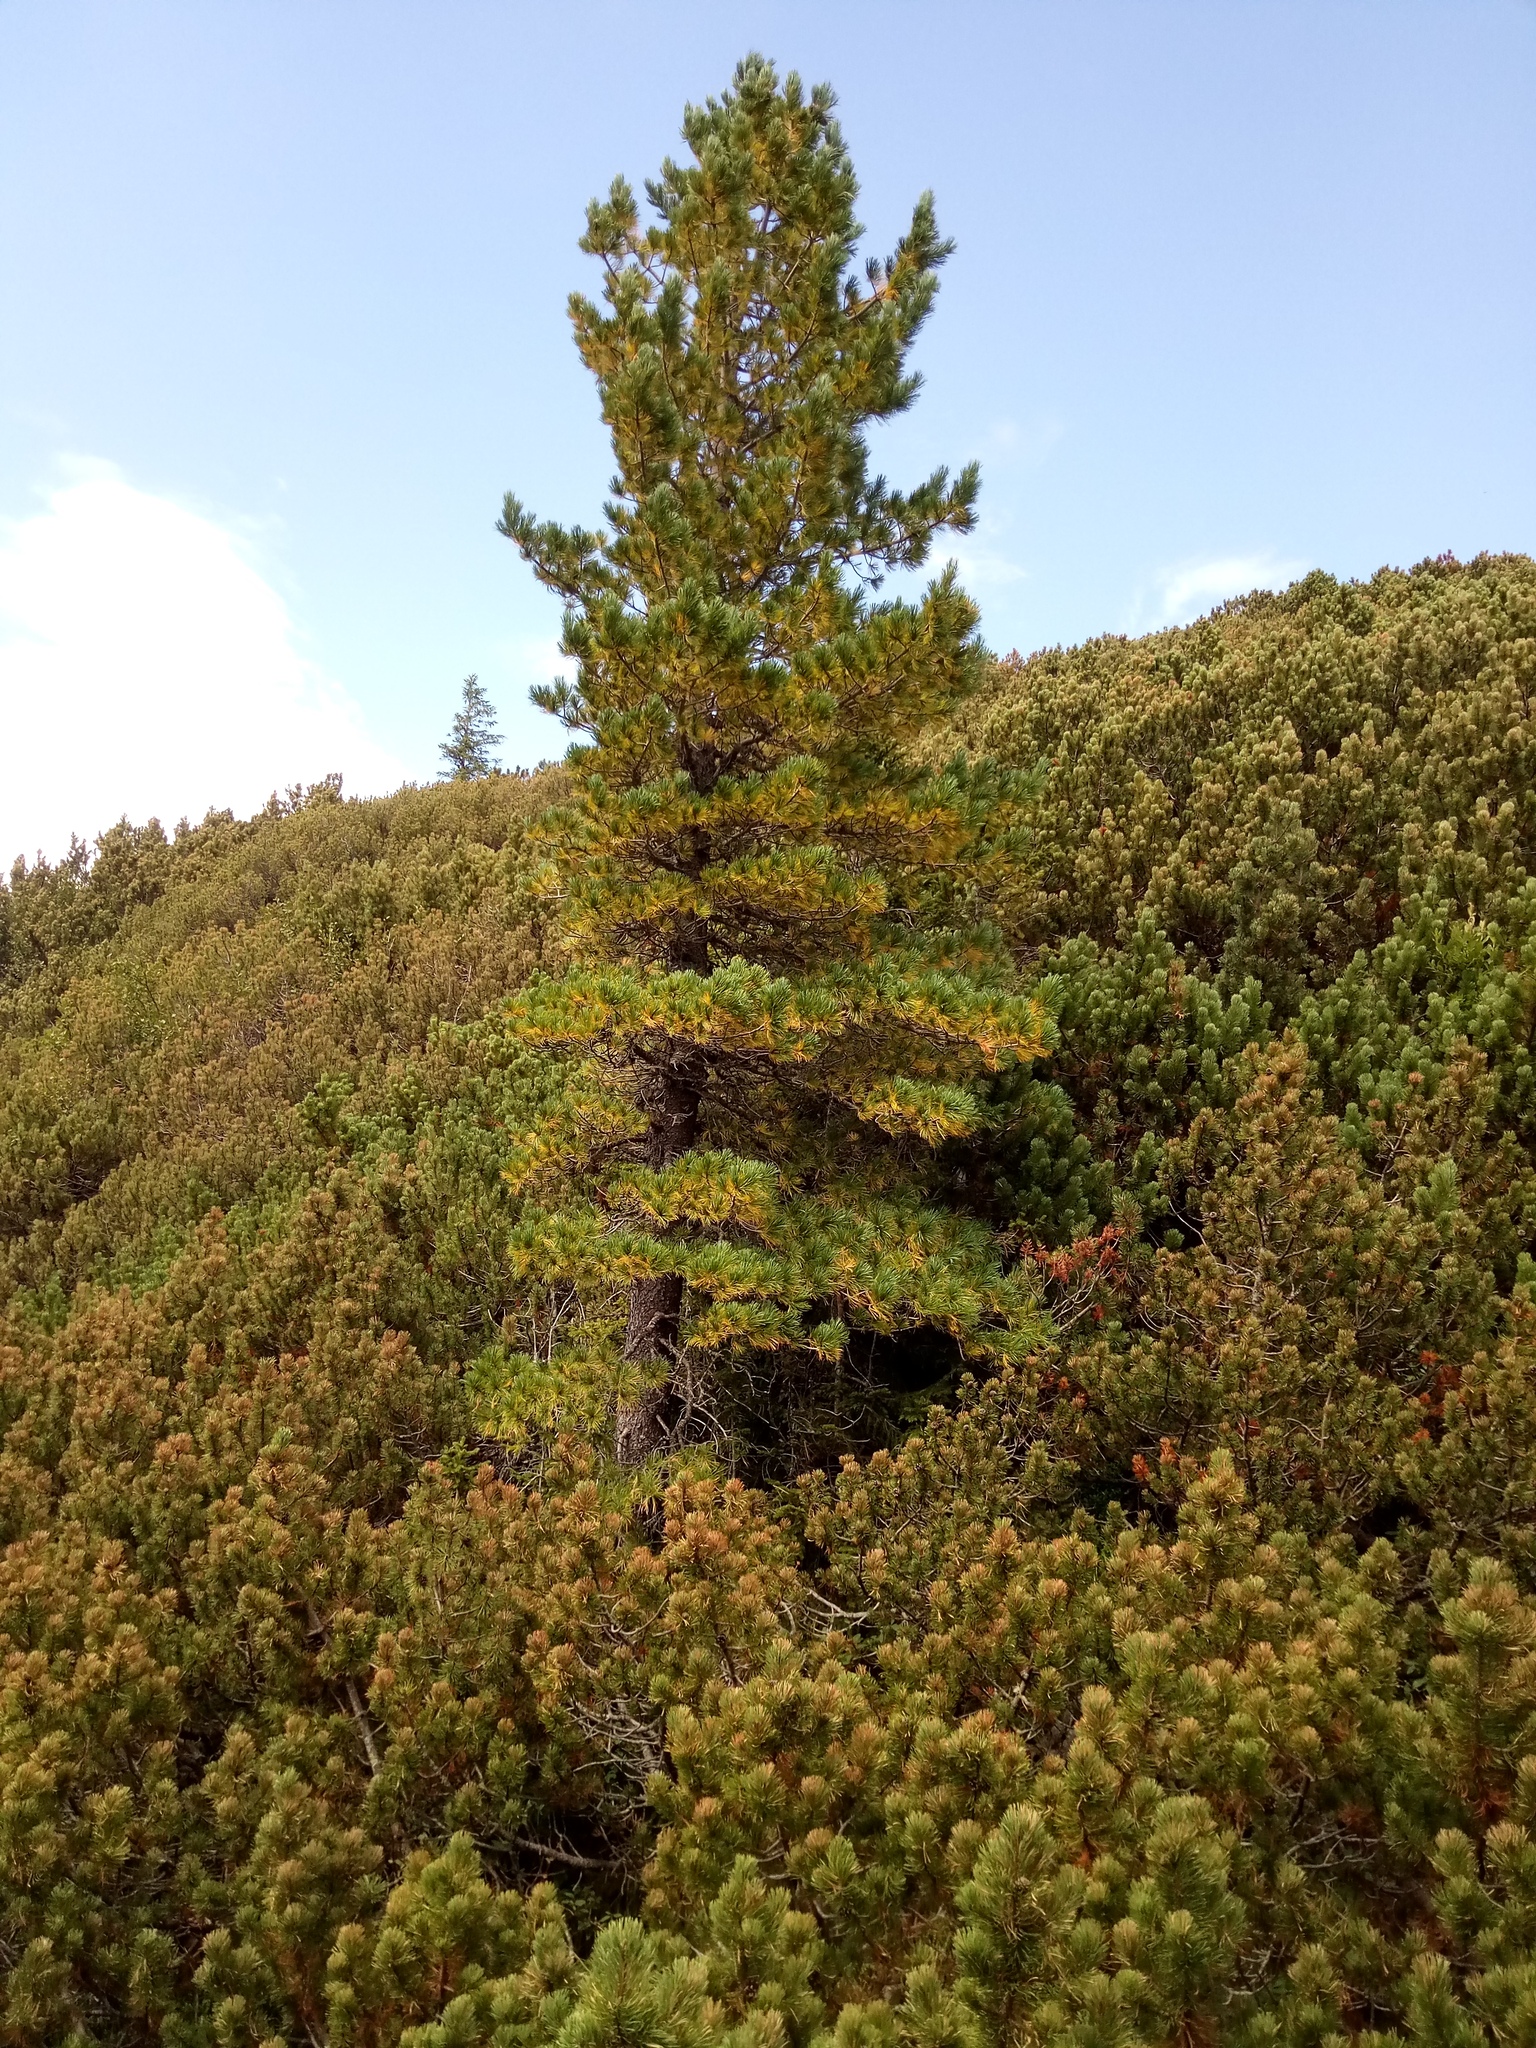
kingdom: Plantae
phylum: Tracheophyta
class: Pinopsida
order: Pinales
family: Pinaceae
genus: Pinus
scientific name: Pinus cembra
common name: Arolla pine
